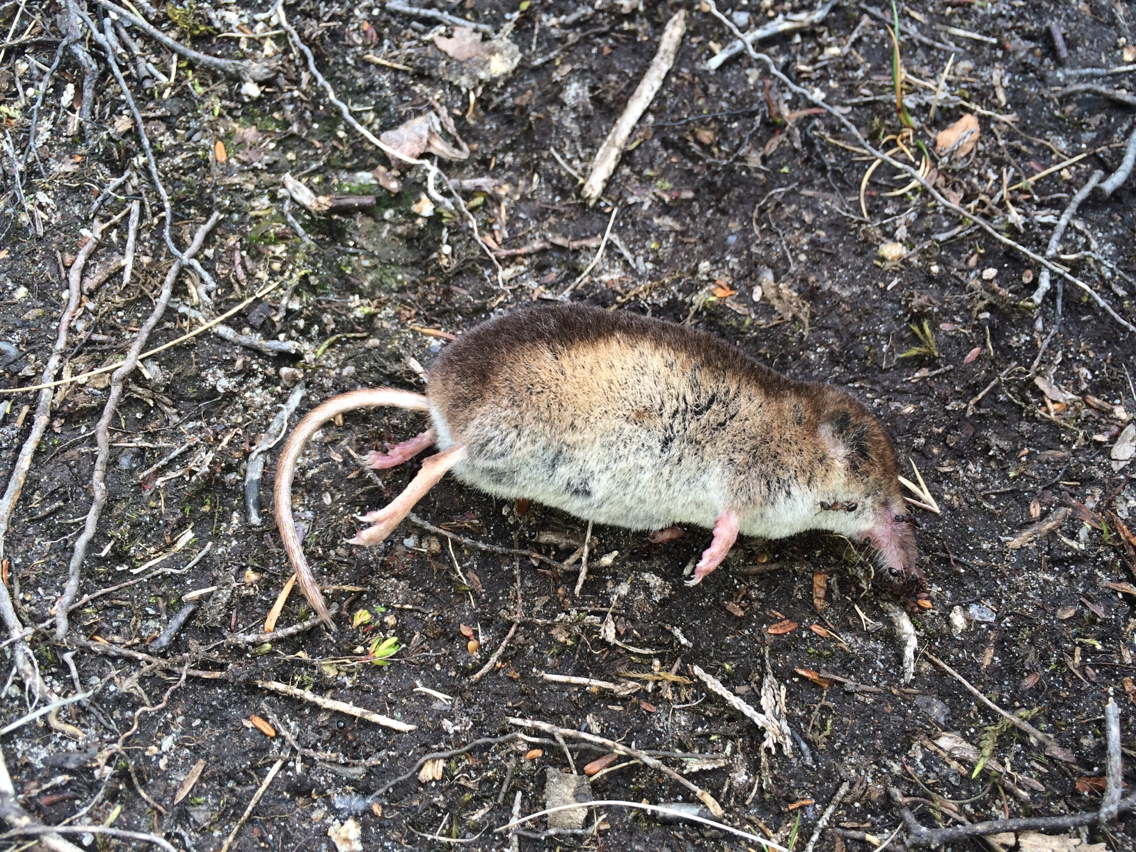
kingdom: Animalia
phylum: Chordata
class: Mammalia
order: Soricomorpha
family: Soricidae
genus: Sorex
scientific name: Sorex araneus
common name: Common shrew
